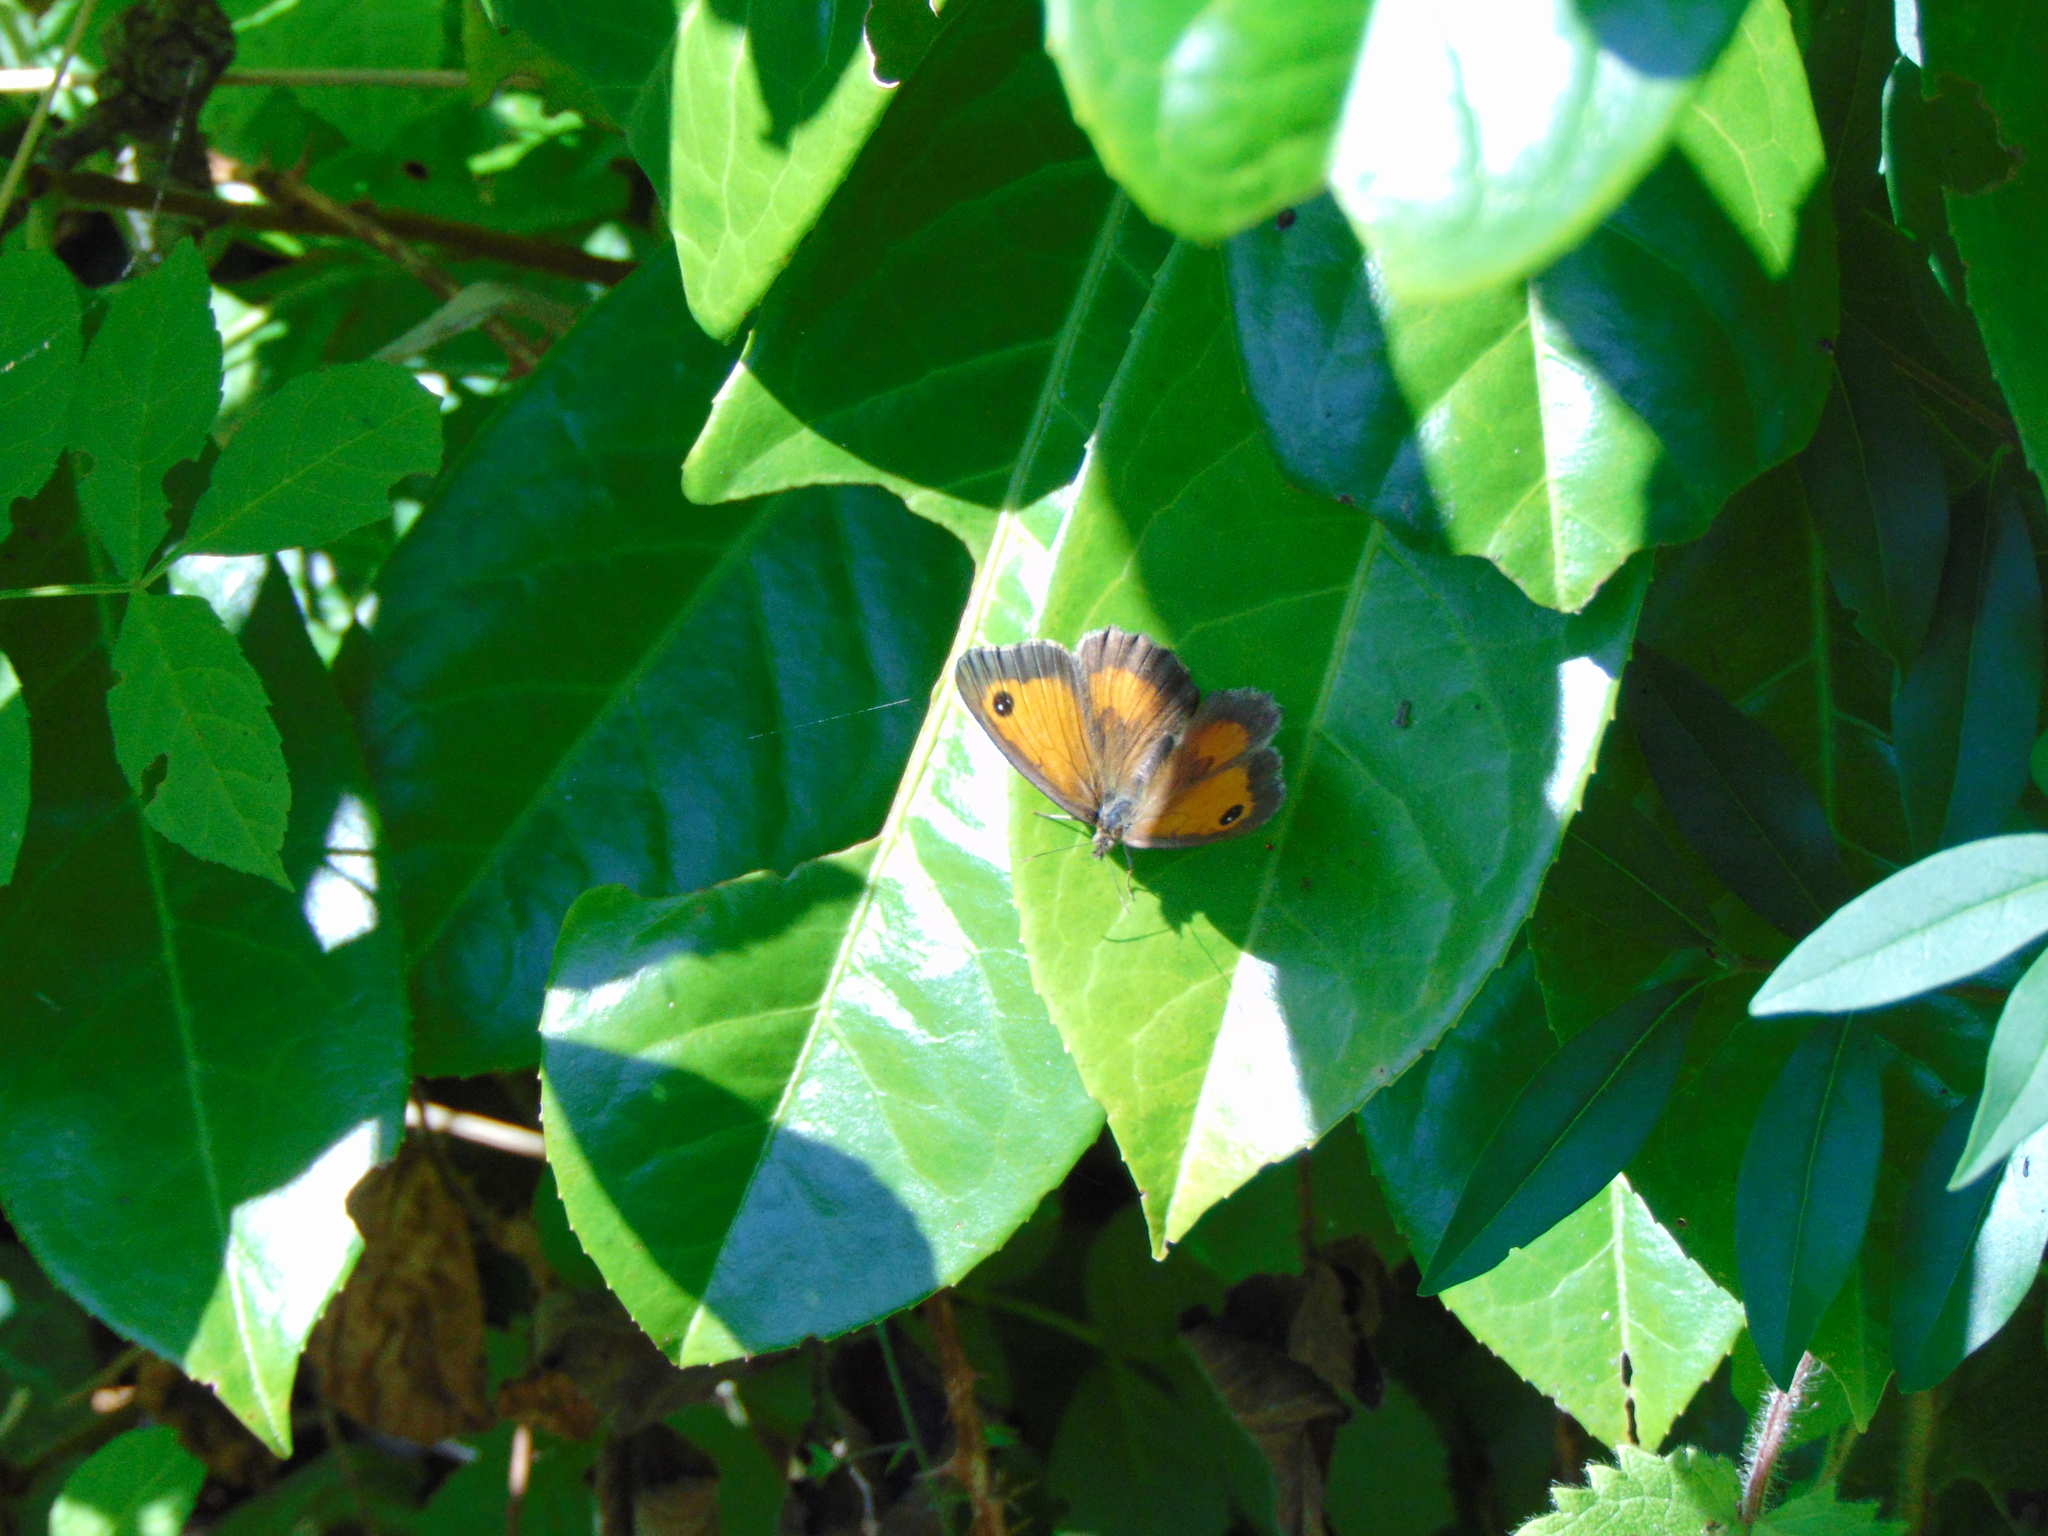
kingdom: Animalia
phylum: Arthropoda
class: Insecta
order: Lepidoptera
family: Nymphalidae
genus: Pyronia
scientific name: Pyronia tithonus
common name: Gatekeeper
